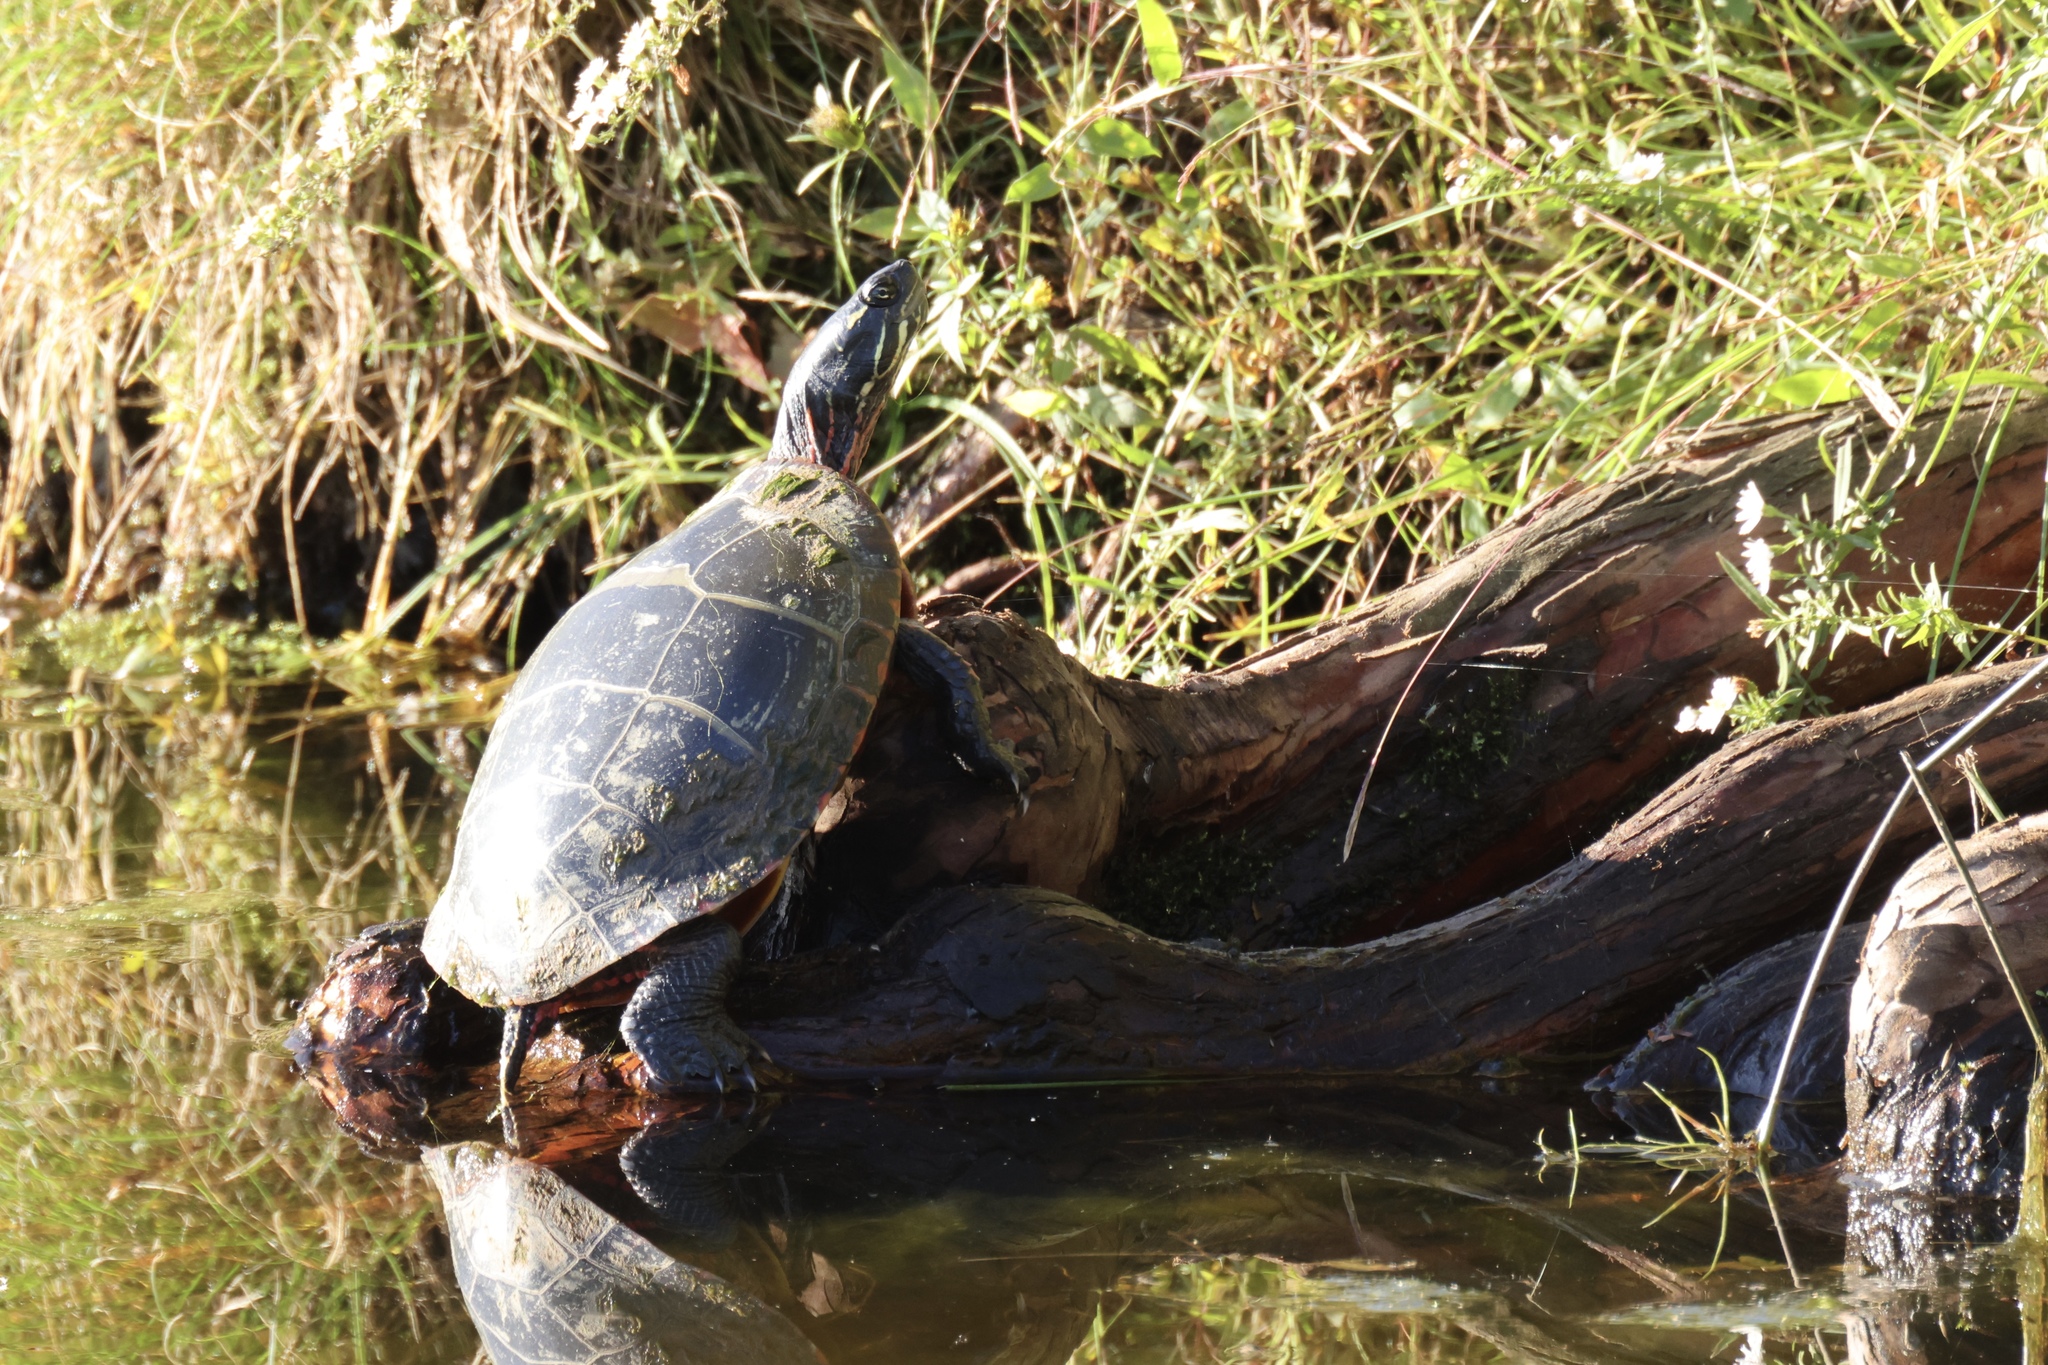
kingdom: Animalia
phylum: Chordata
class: Testudines
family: Emydidae
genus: Chrysemys
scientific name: Chrysemys picta
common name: Painted turtle
